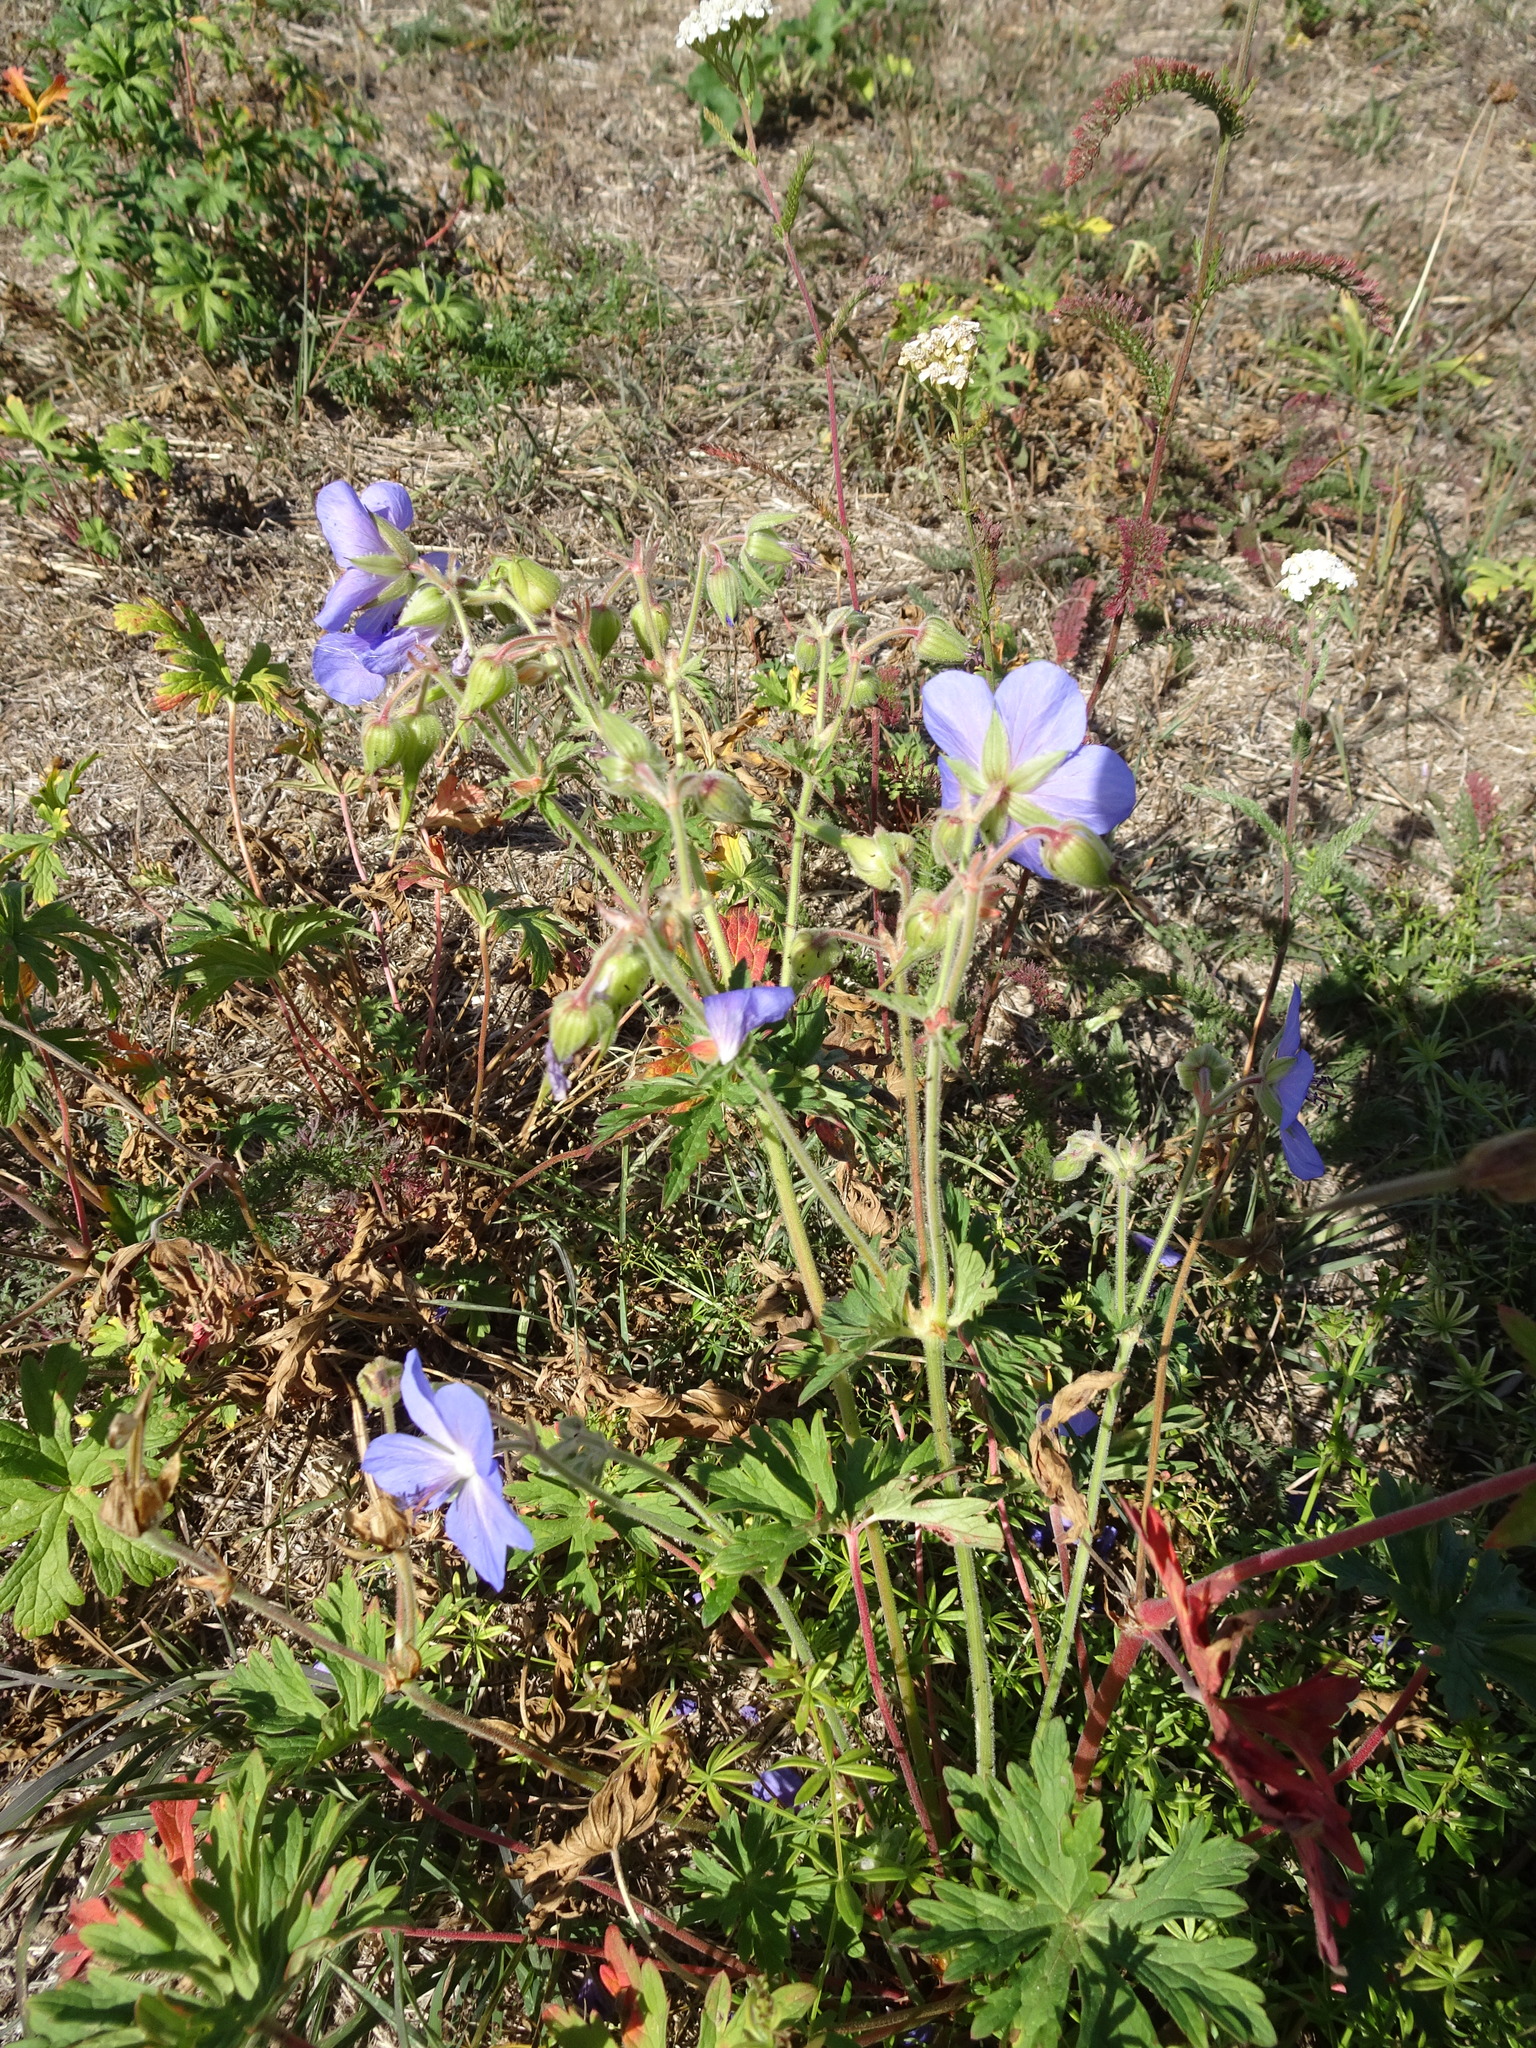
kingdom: Plantae
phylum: Tracheophyta
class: Magnoliopsida
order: Geraniales
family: Geraniaceae
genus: Geranium
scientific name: Geranium pratense
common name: Meadow crane's-bill
